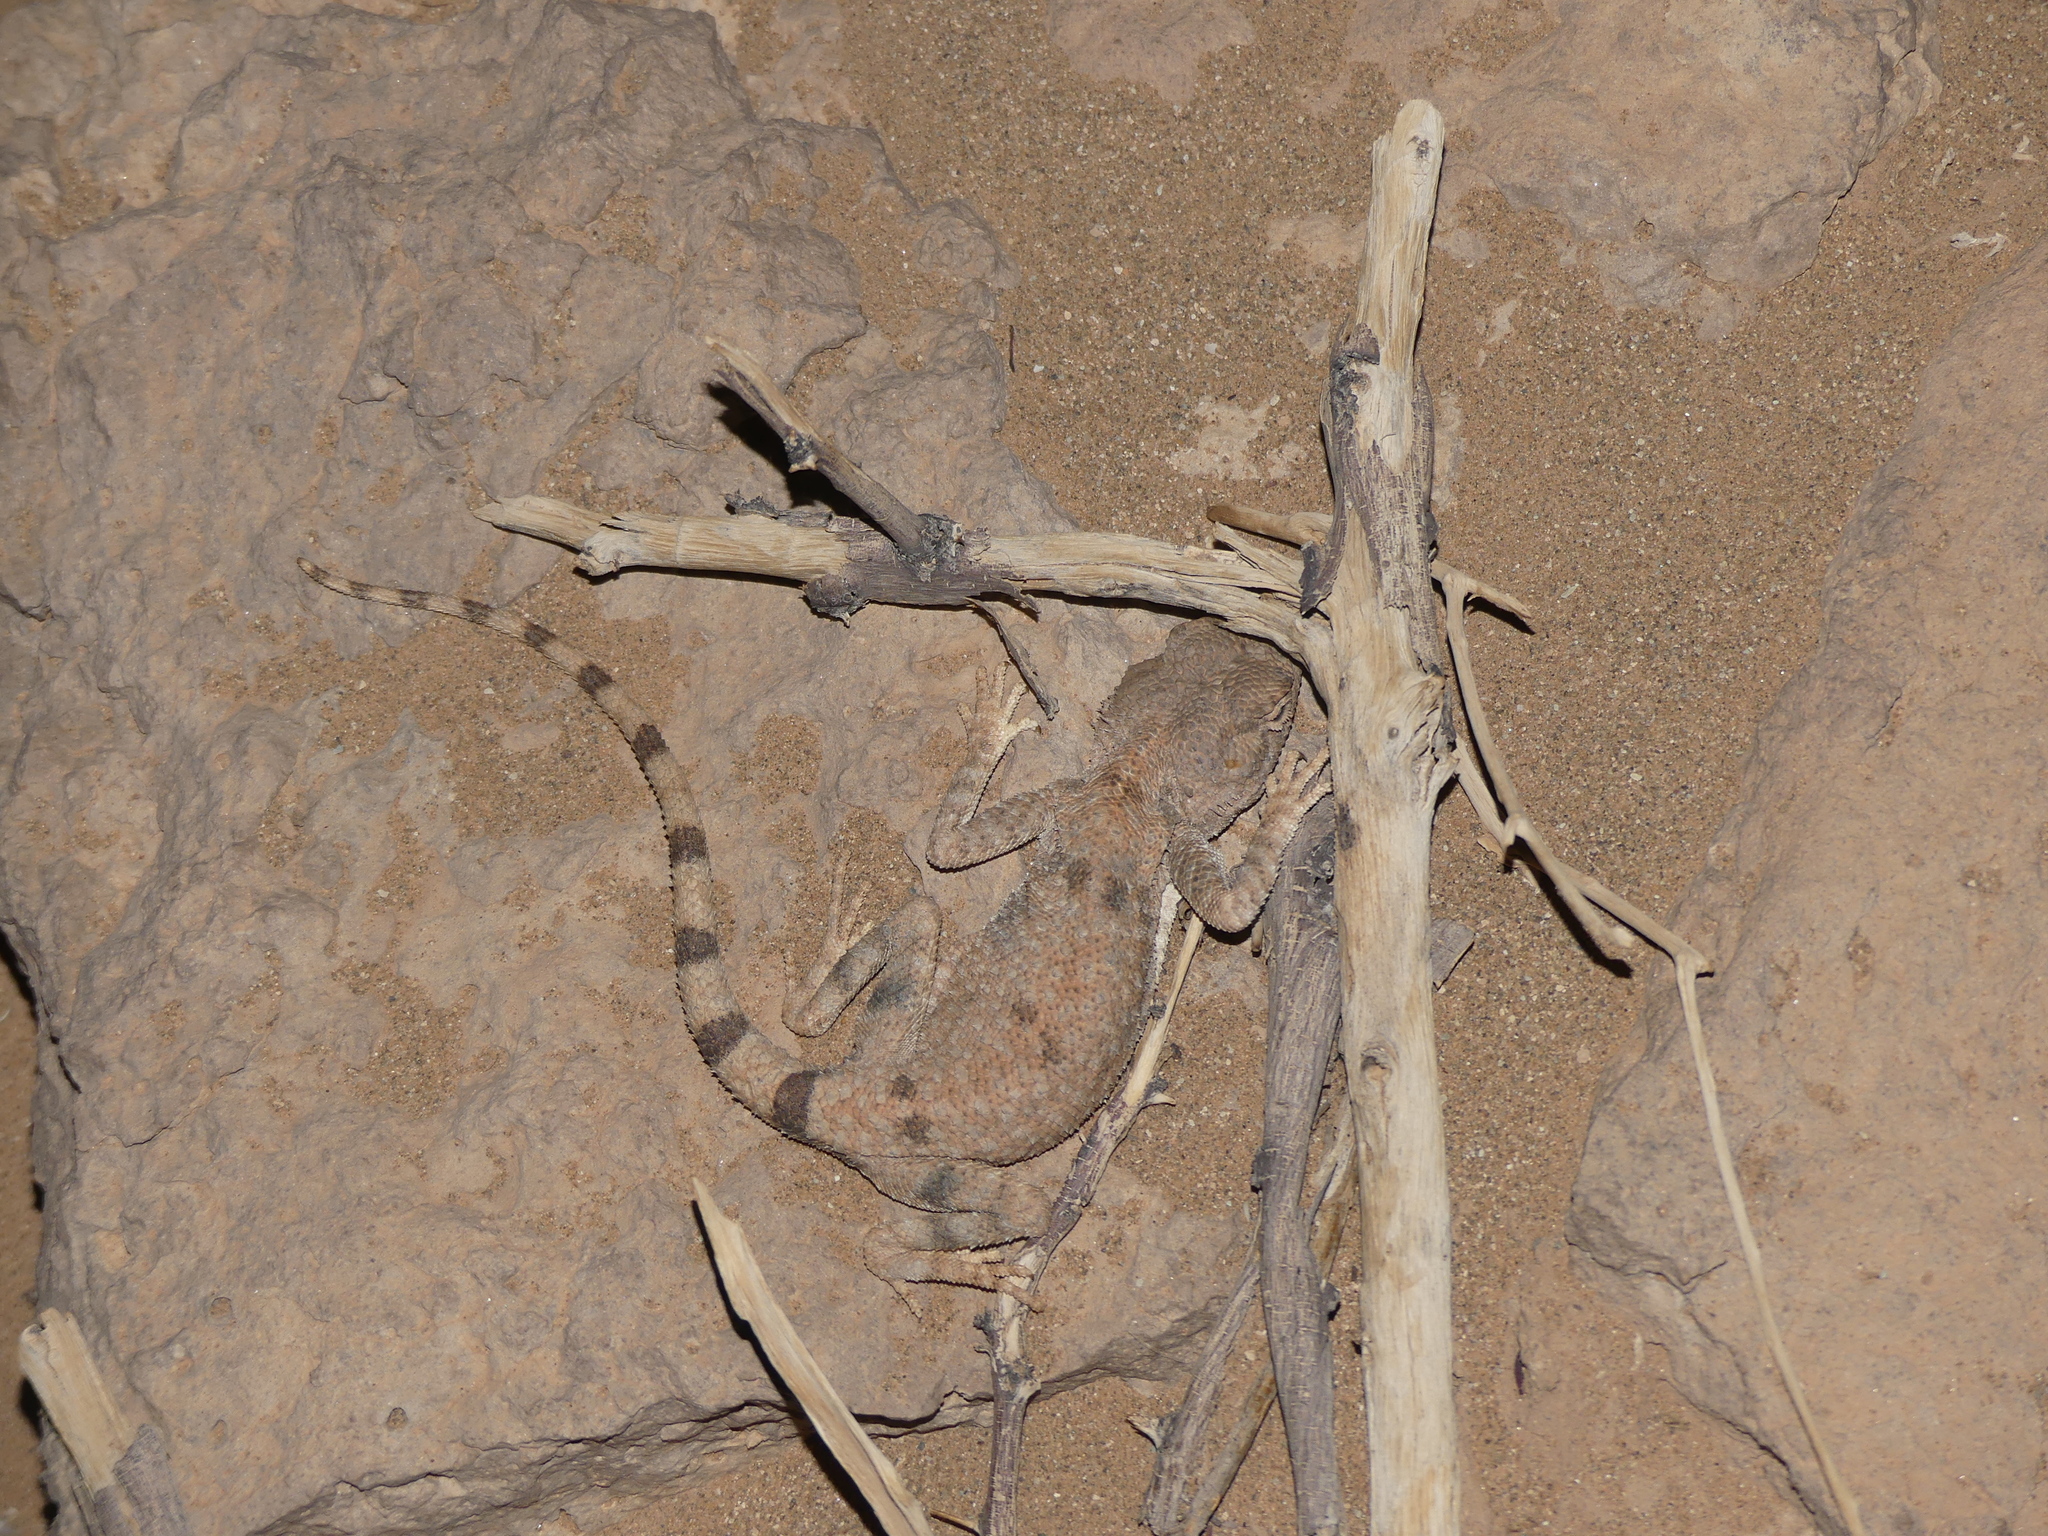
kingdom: Animalia
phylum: Chordata
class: Squamata
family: Agamidae
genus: Trapelus
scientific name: Trapelus boehmei
